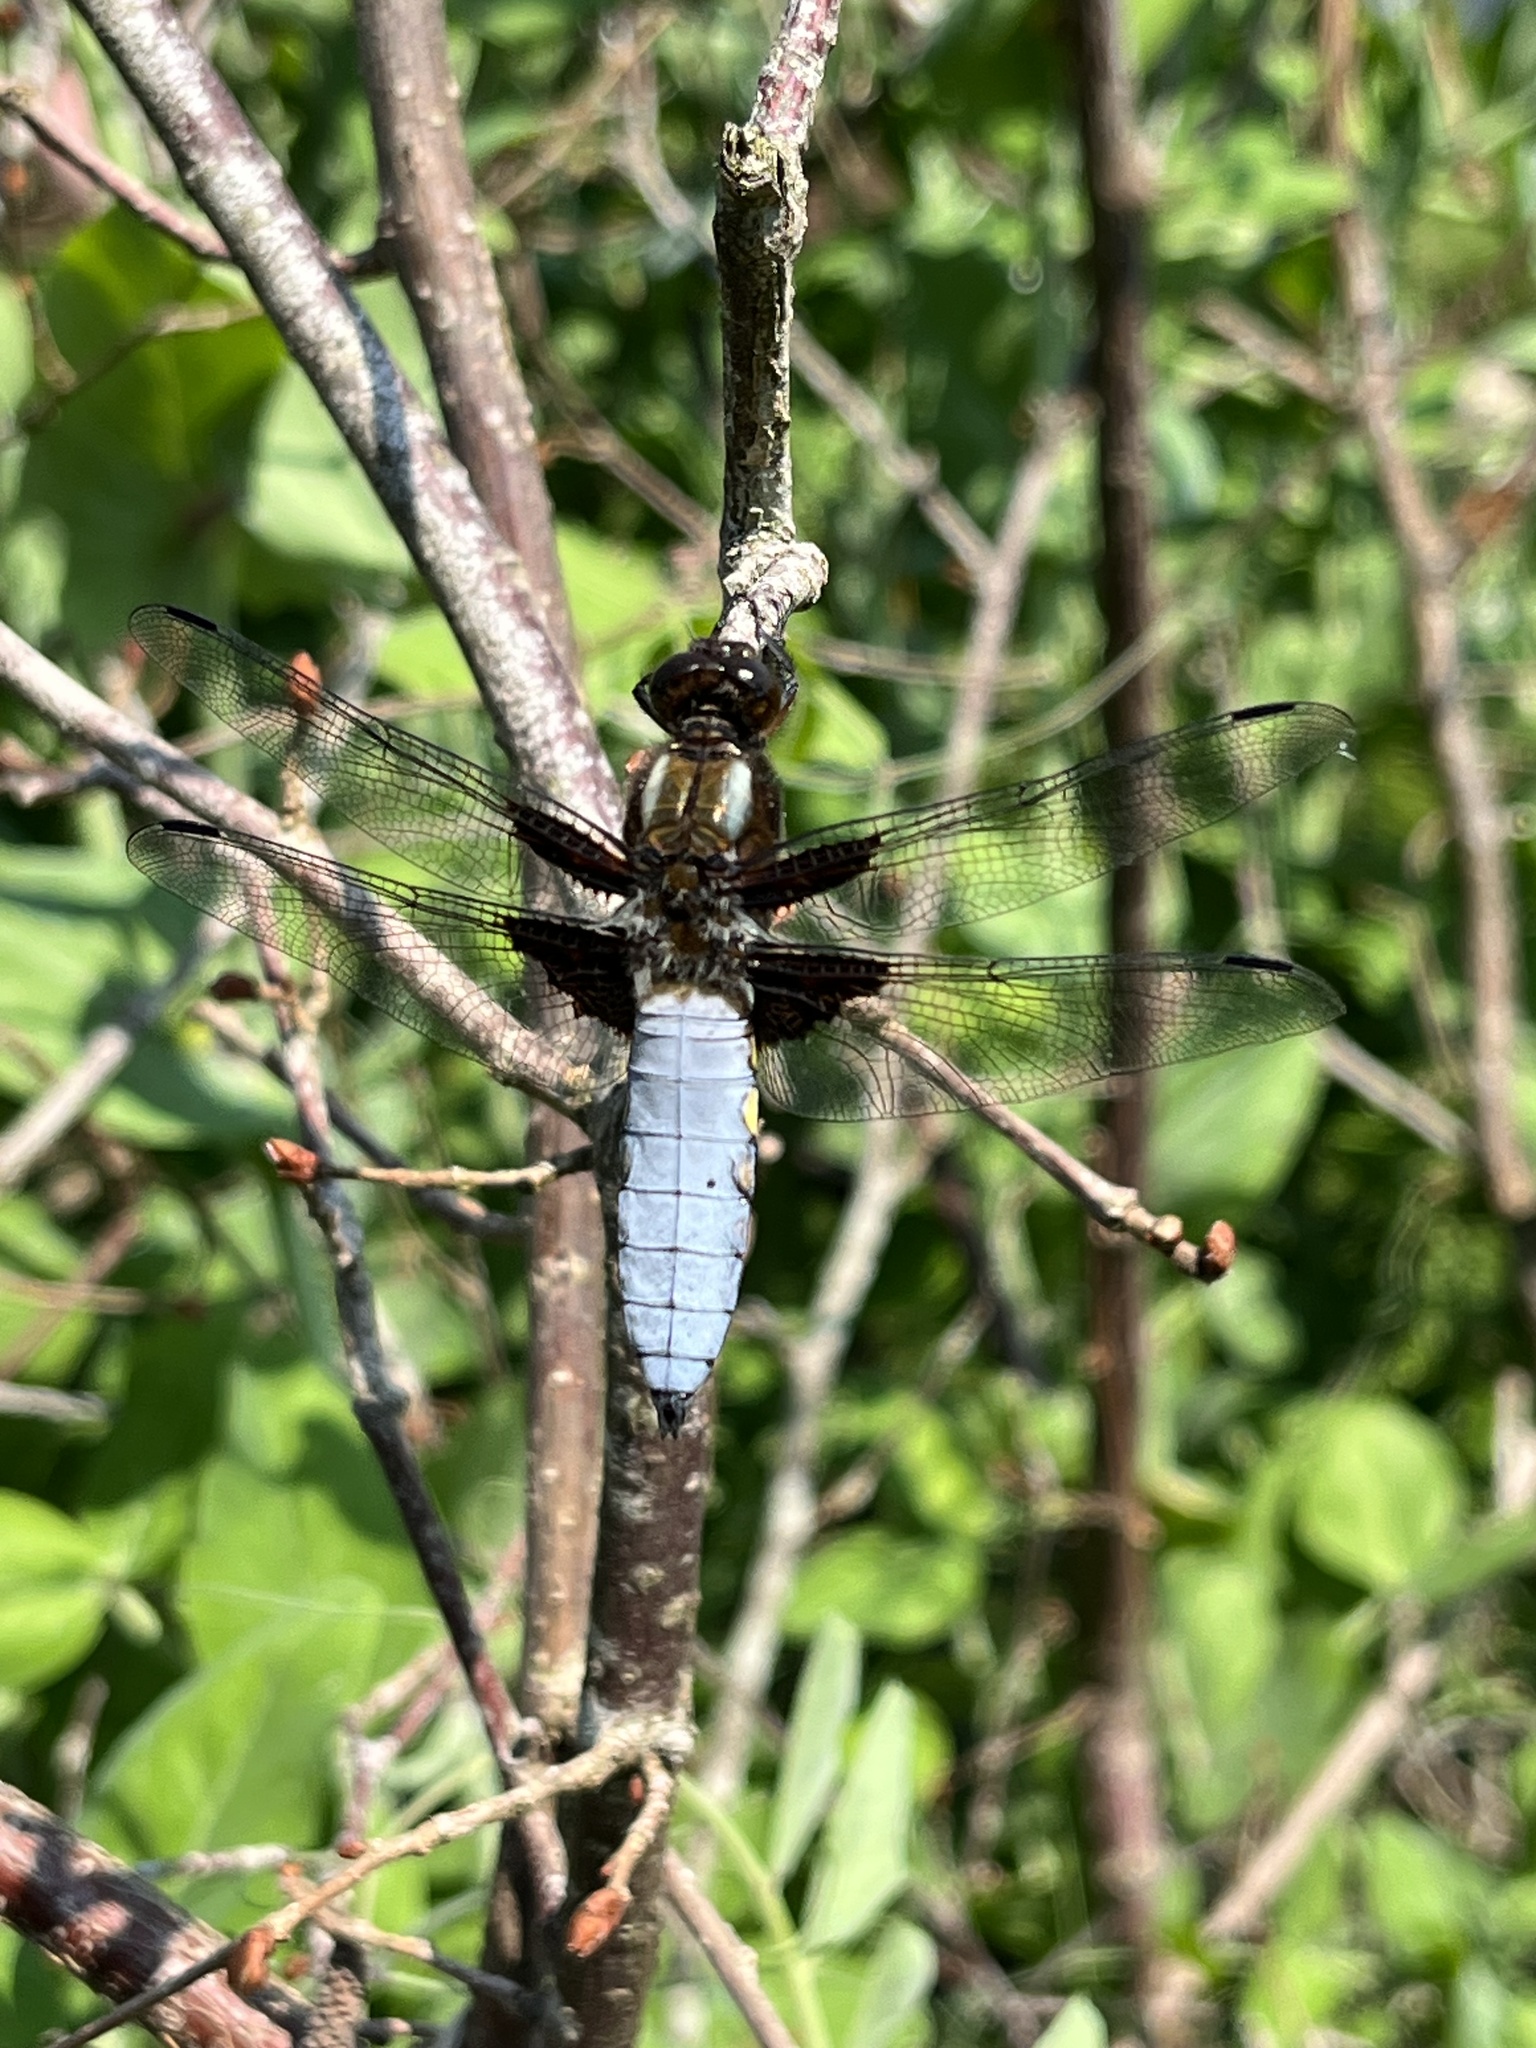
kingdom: Animalia
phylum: Arthropoda
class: Insecta
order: Odonata
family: Libellulidae
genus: Libellula
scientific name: Libellula depressa
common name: Broad-bodied chaser
